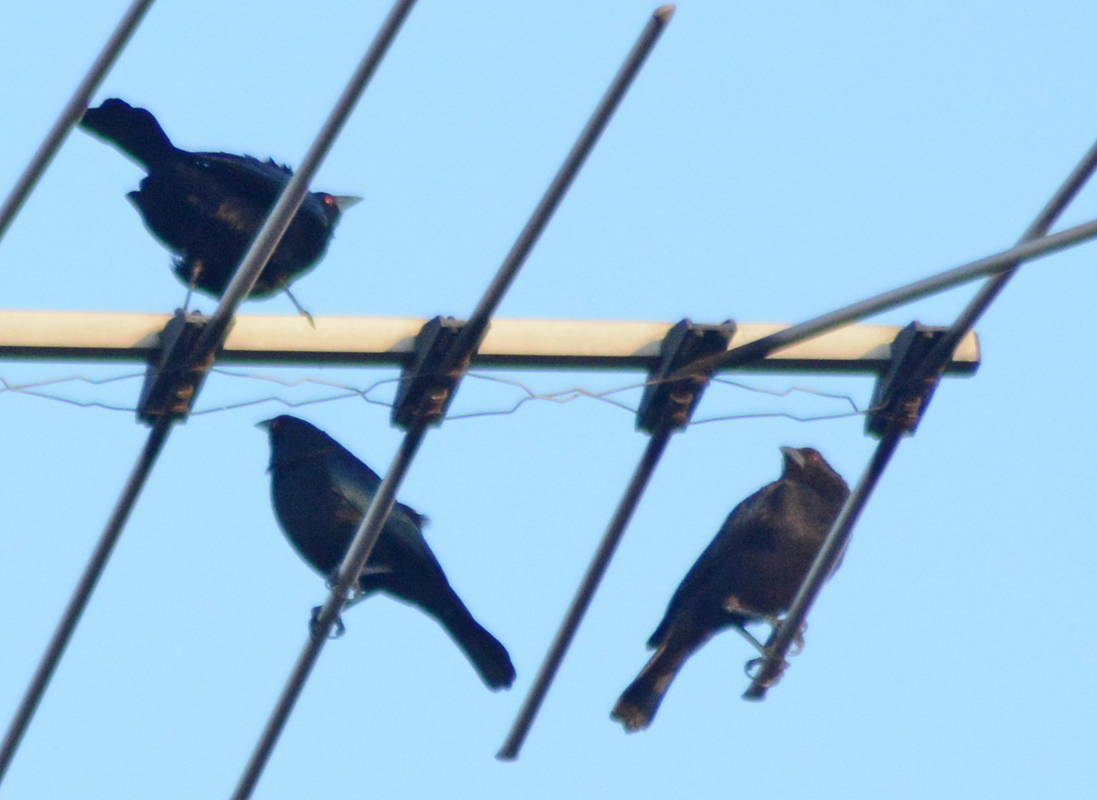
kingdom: Animalia
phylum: Chordata
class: Aves
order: Passeriformes
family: Icteridae
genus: Molothrus
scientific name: Molothrus aeneus
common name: Bronzed cowbird
